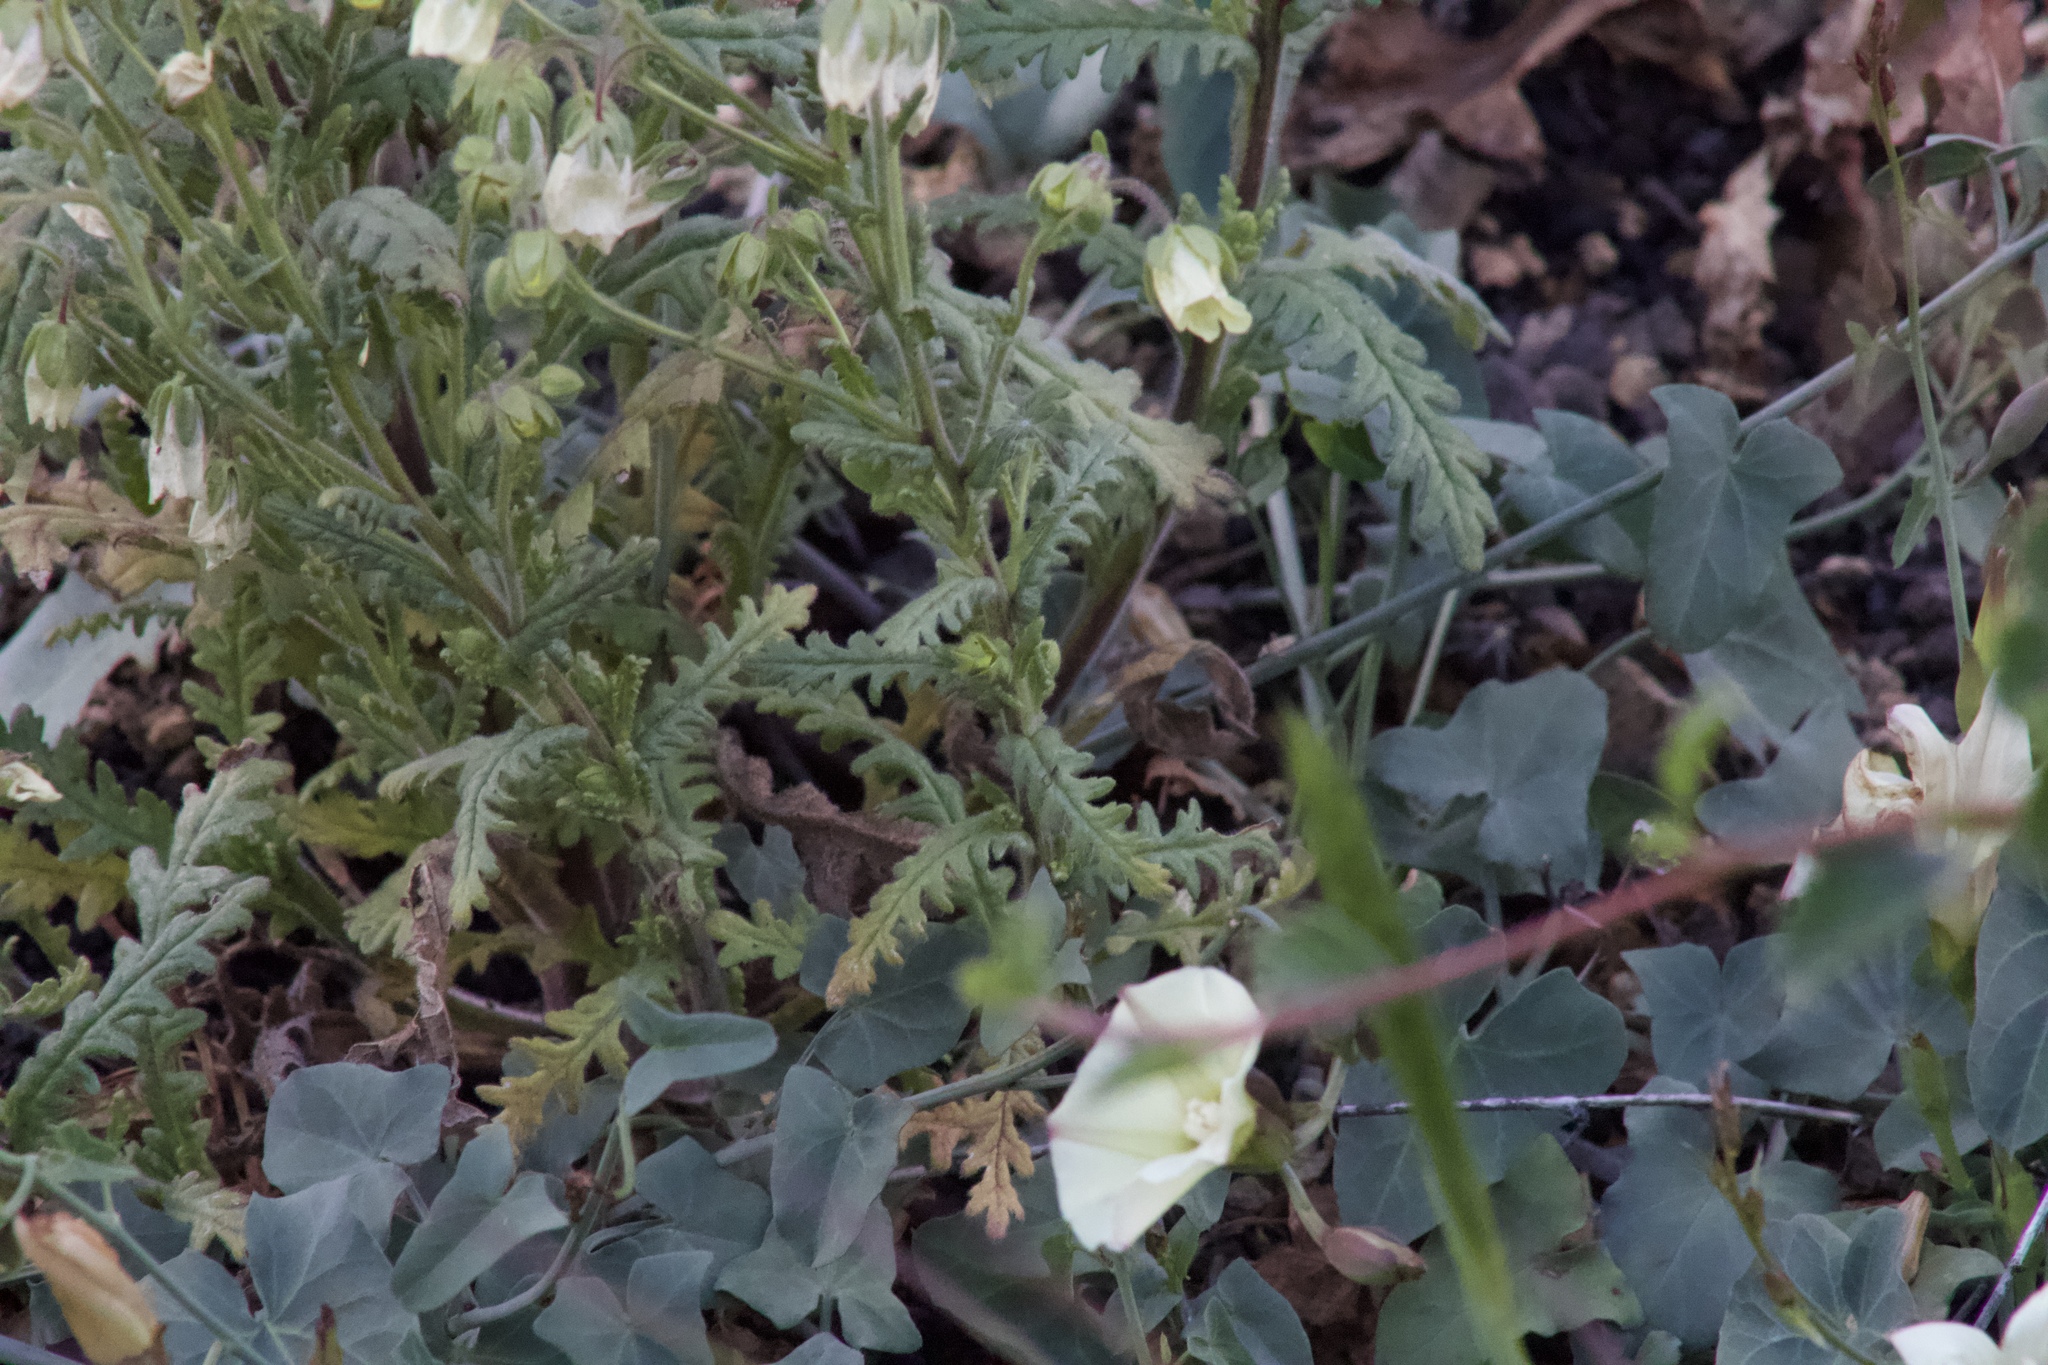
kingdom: Plantae
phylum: Tracheophyta
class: Magnoliopsida
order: Boraginales
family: Hydrophyllaceae
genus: Emmenanthe
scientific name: Emmenanthe penduliflora
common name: Whispering-bells
